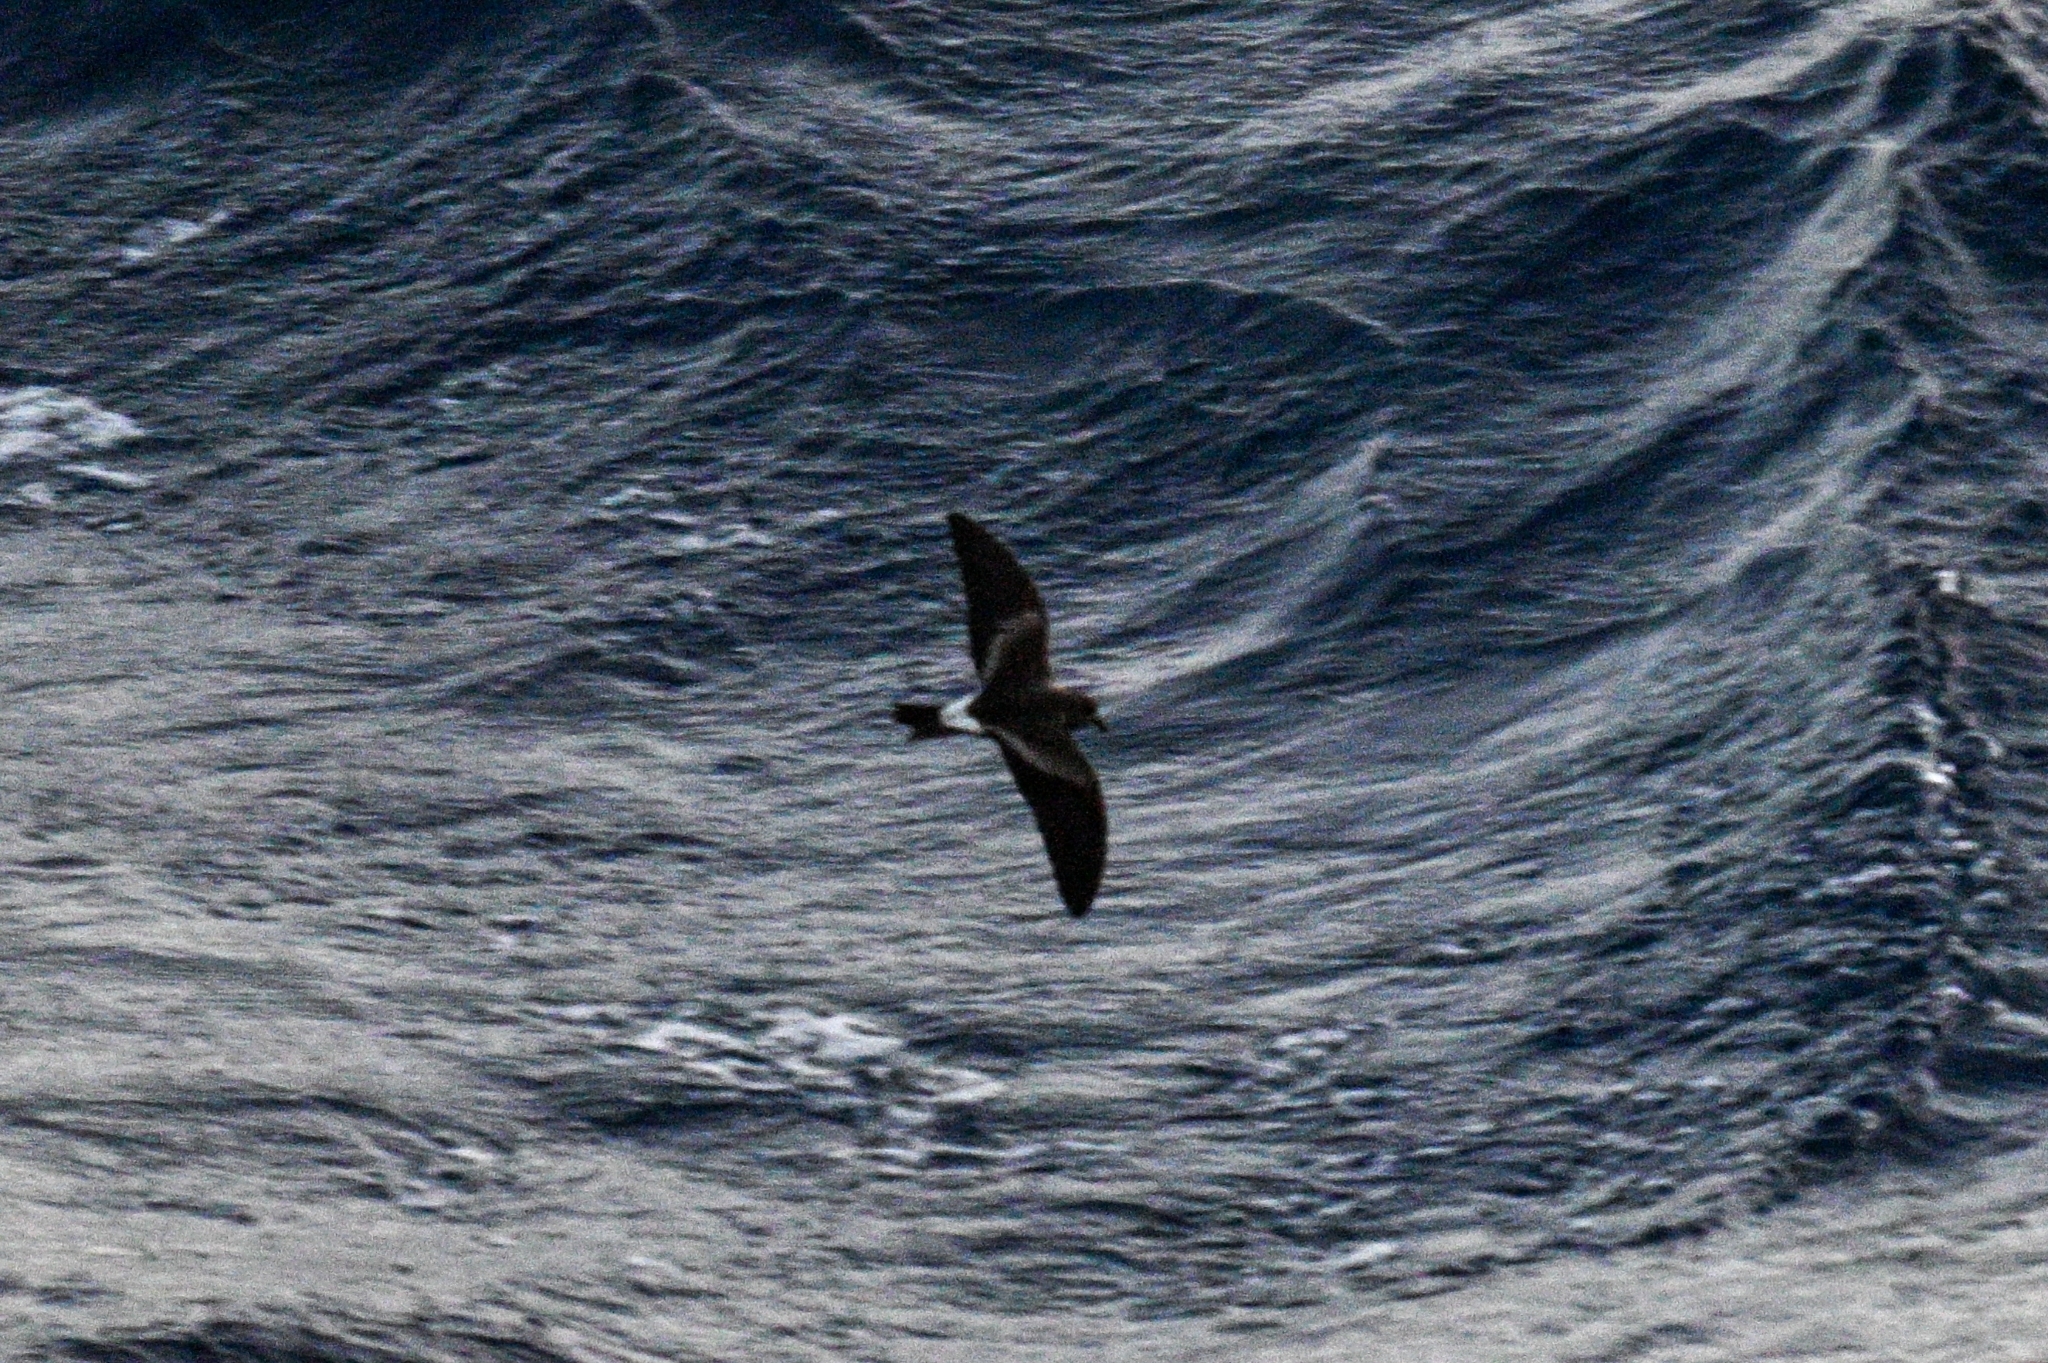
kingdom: Animalia
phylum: Chordata
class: Aves
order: Procellariiformes
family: Hydrobatidae
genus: Oceanodroma
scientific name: Oceanodroma leucorhoa
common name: Leach's storm-petrel
